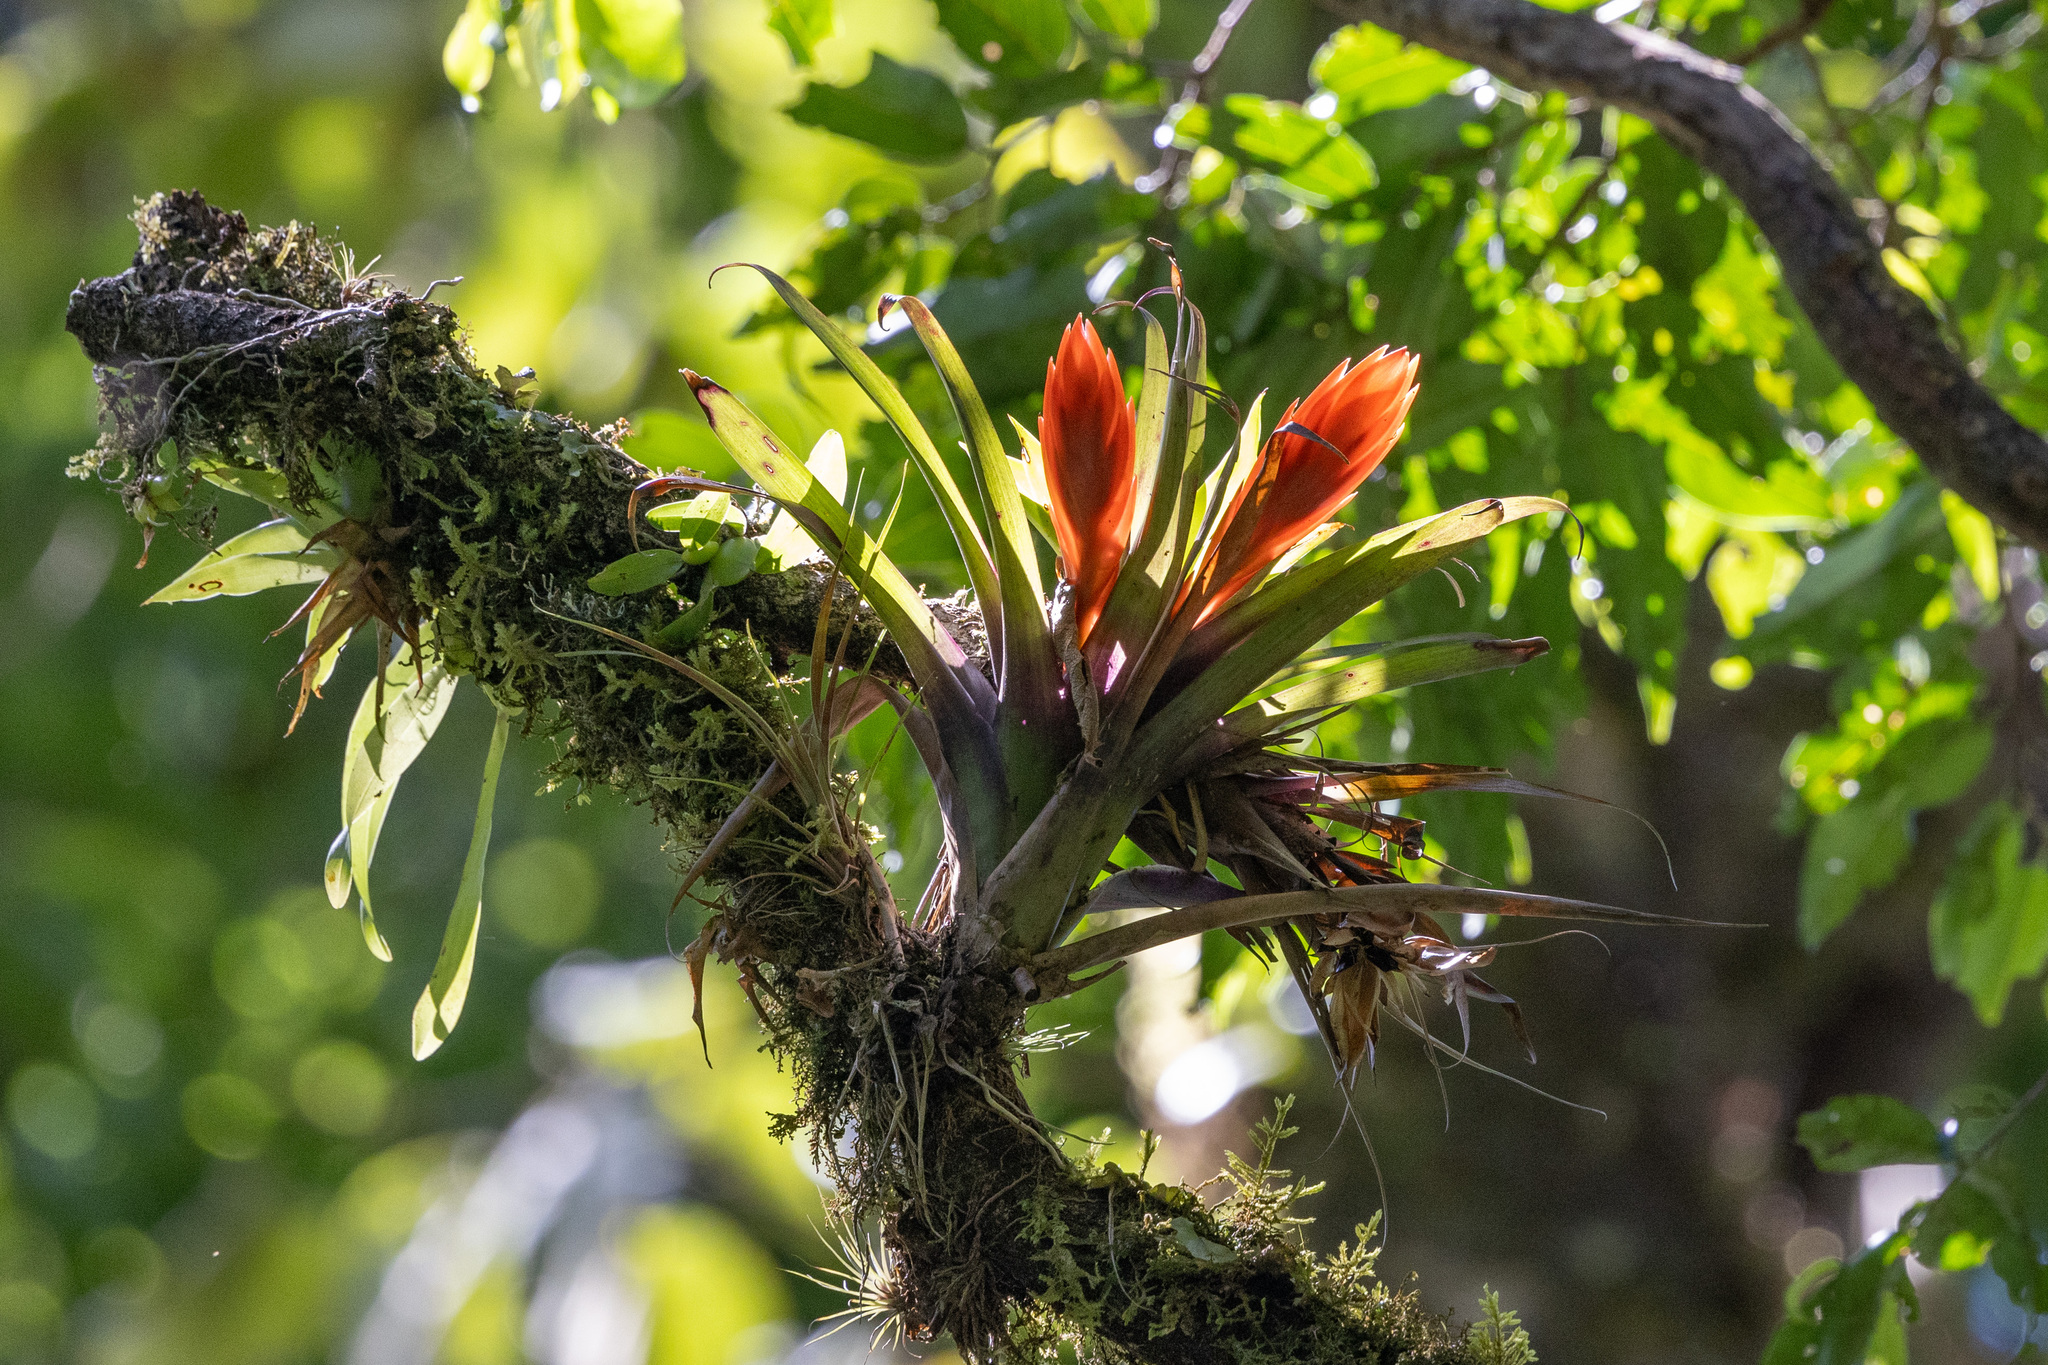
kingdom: Plantae
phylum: Tracheophyta
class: Liliopsida
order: Poales
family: Bromeliaceae
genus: Tillandsia
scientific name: Tillandsia multicaulis
